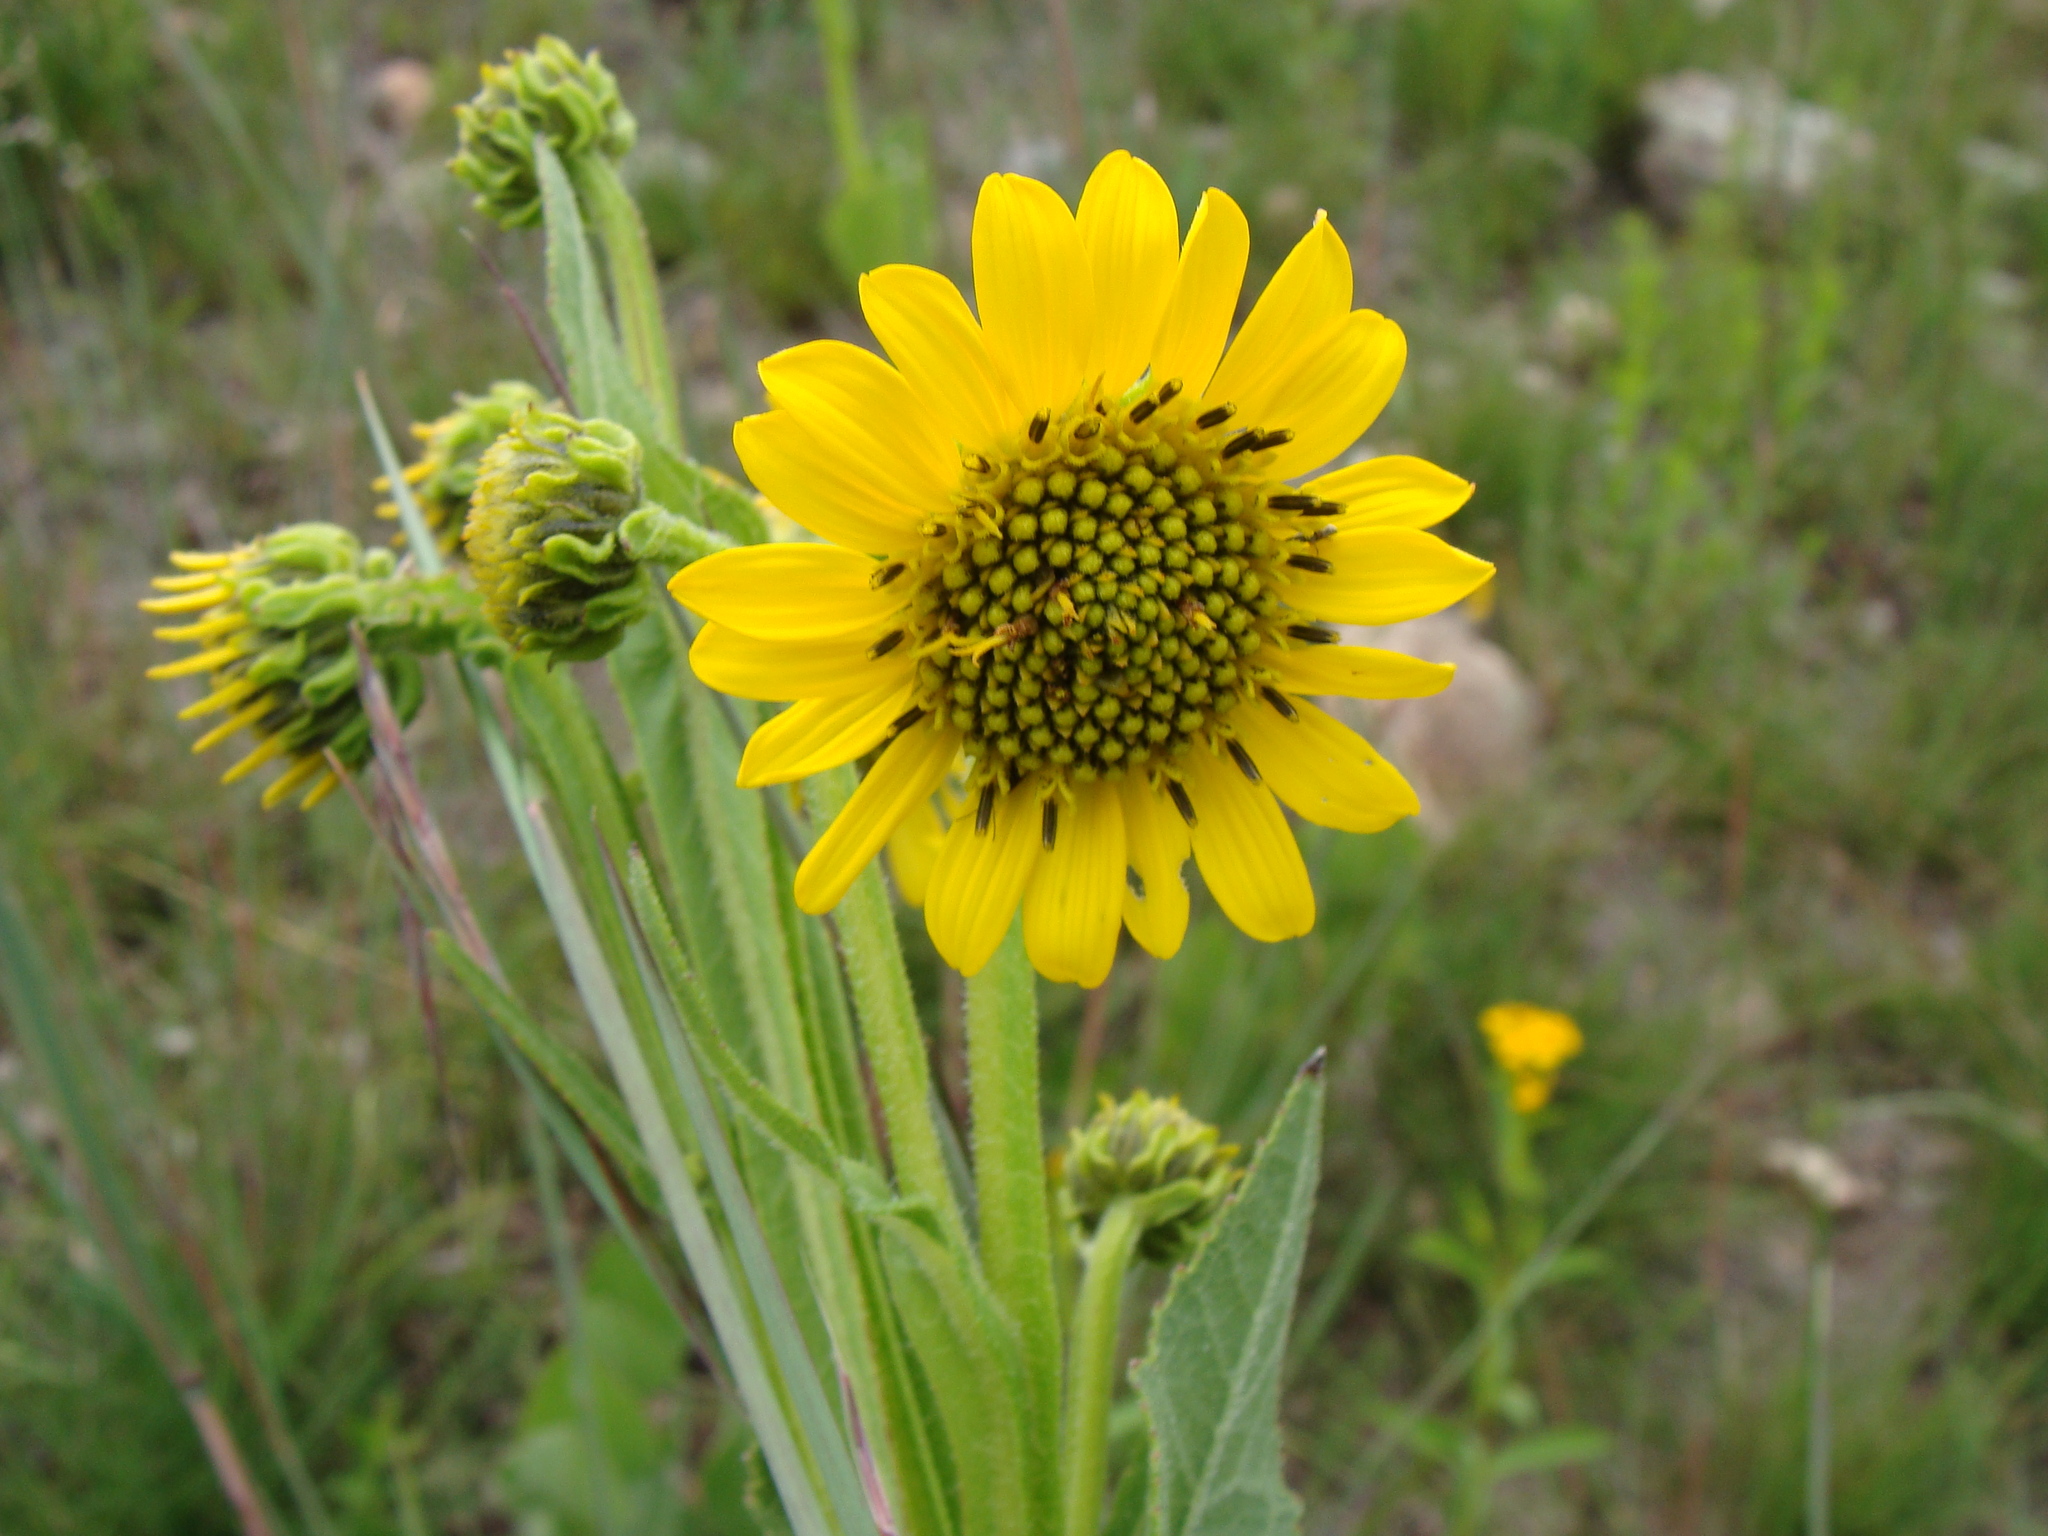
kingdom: Plantae
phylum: Tracheophyta
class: Magnoliopsida
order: Asterales
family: Asteraceae
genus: Verbesina
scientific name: Verbesina tetraptera
